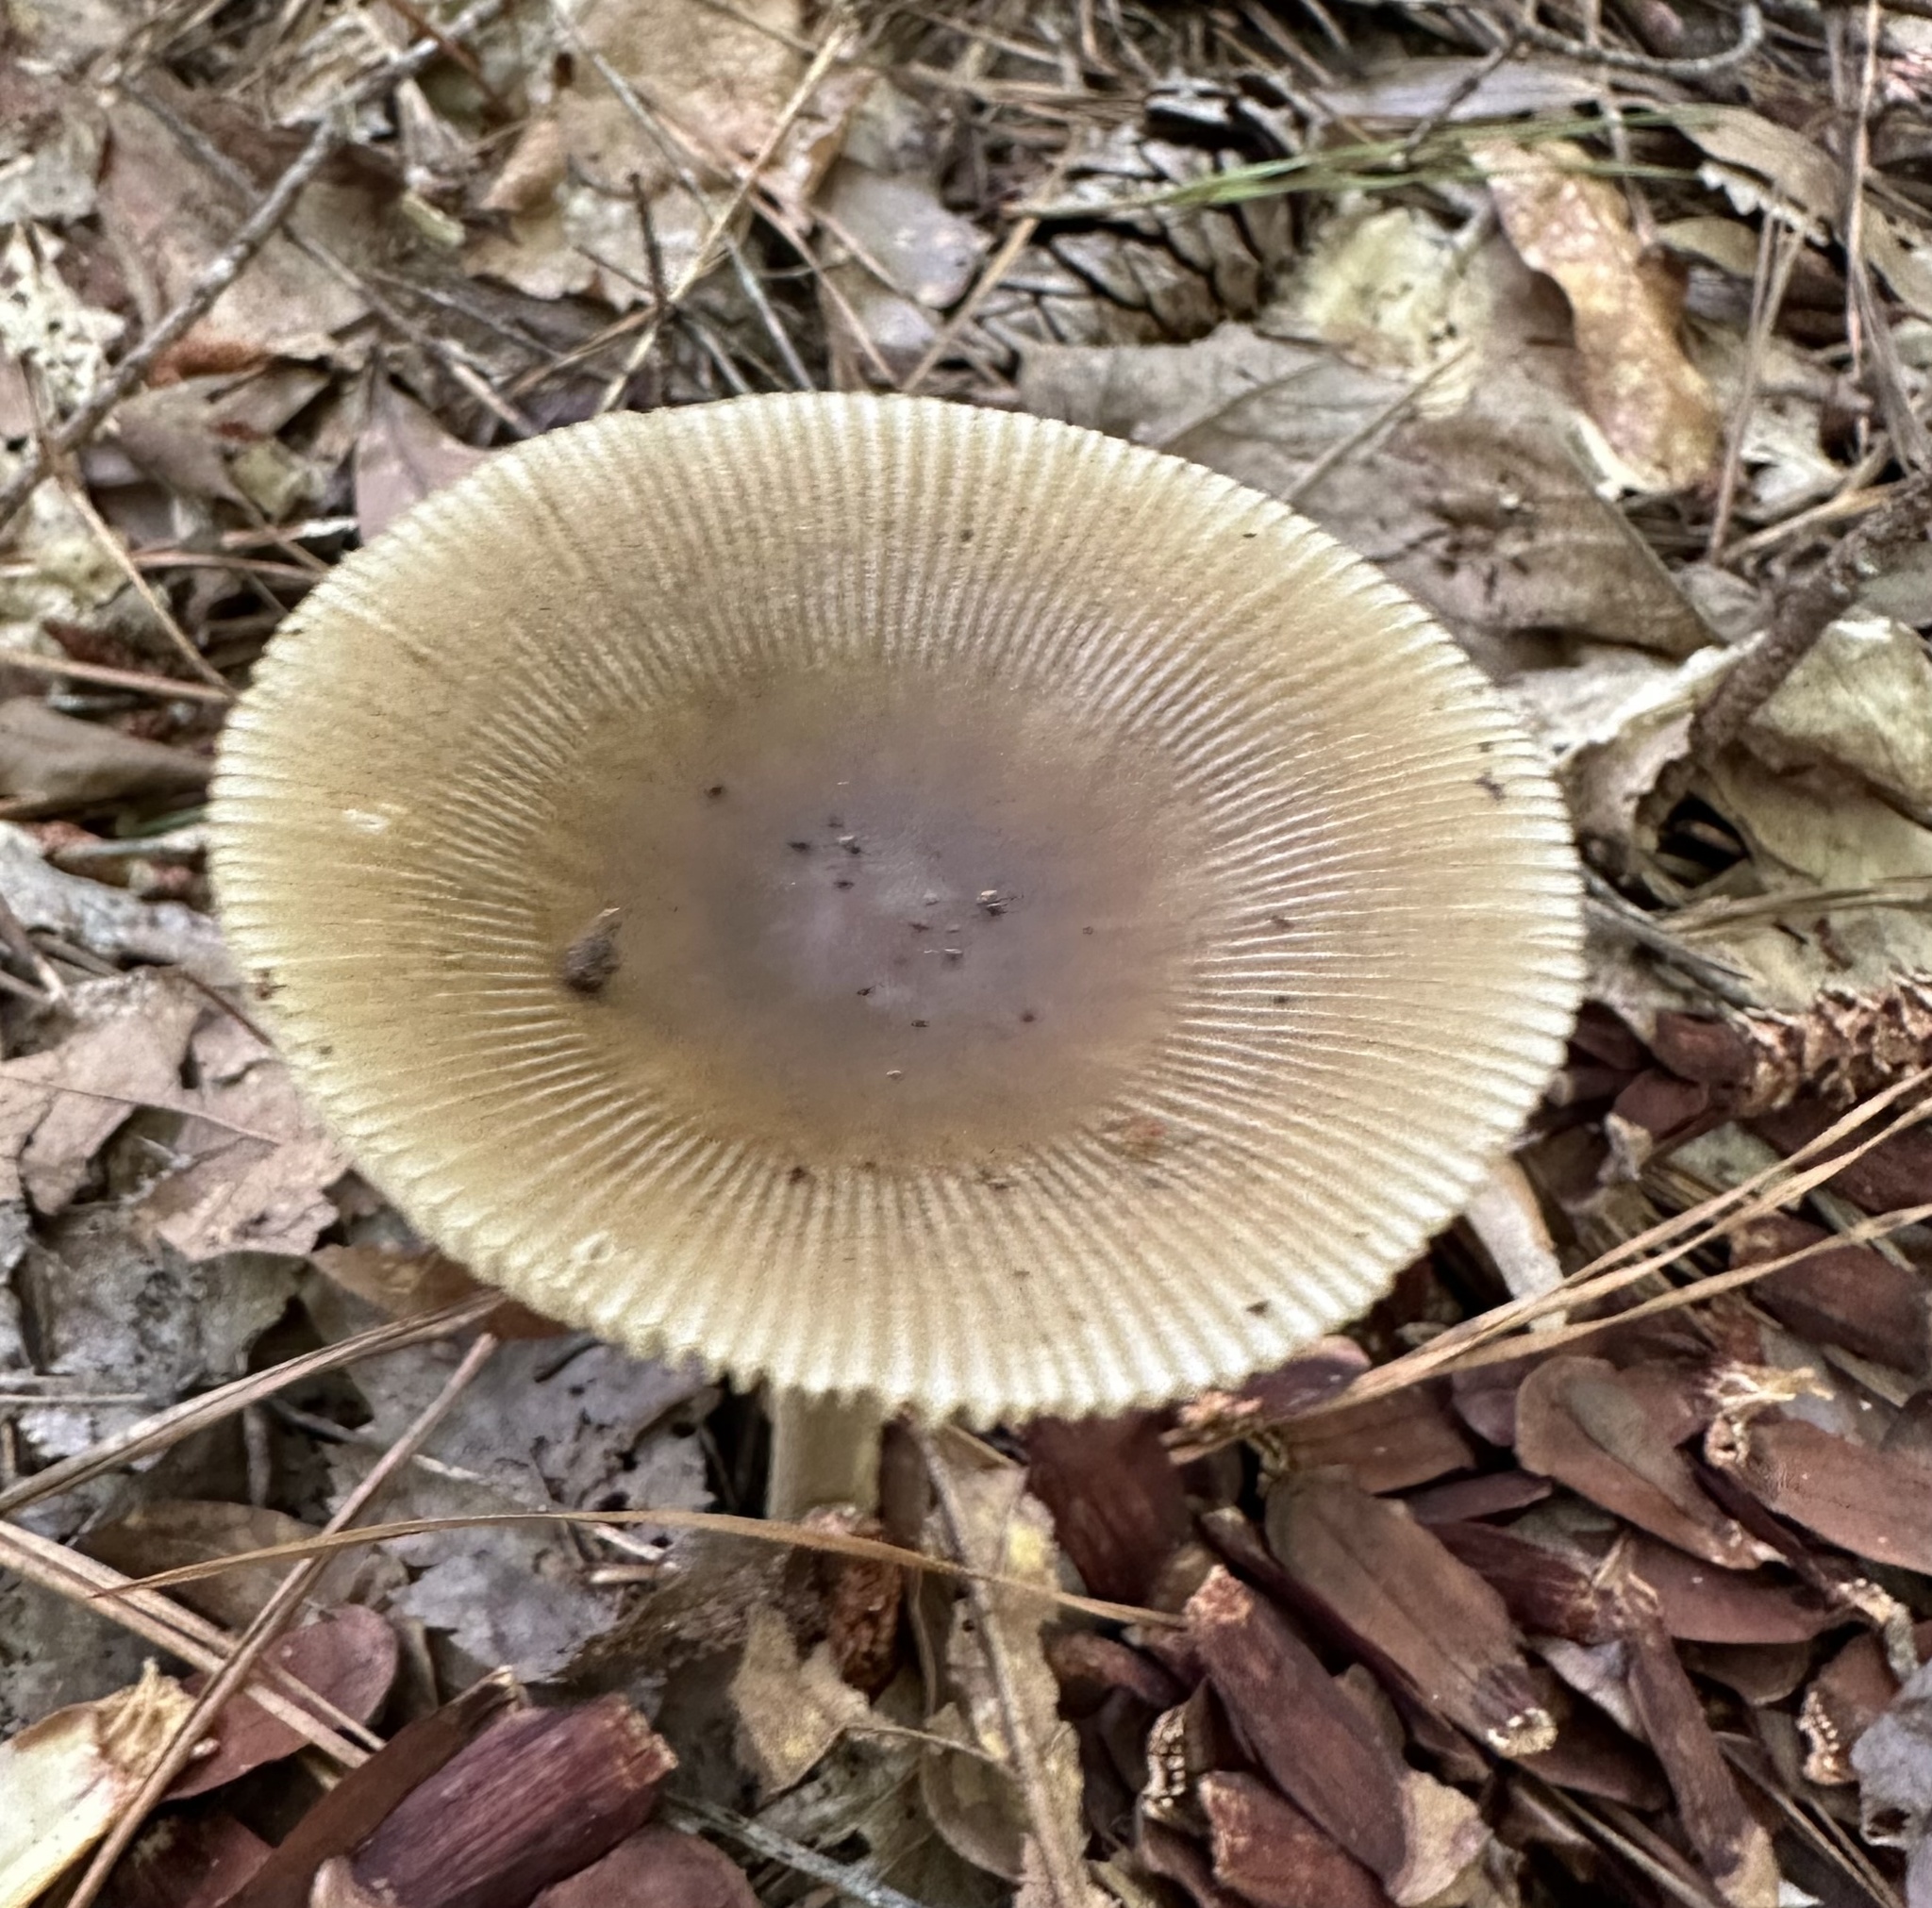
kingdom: Fungi
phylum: Basidiomycota
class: Agaricomycetes
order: Agaricales
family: Amanitaceae
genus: Amanita
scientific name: Amanita vaginata
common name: Grisette
